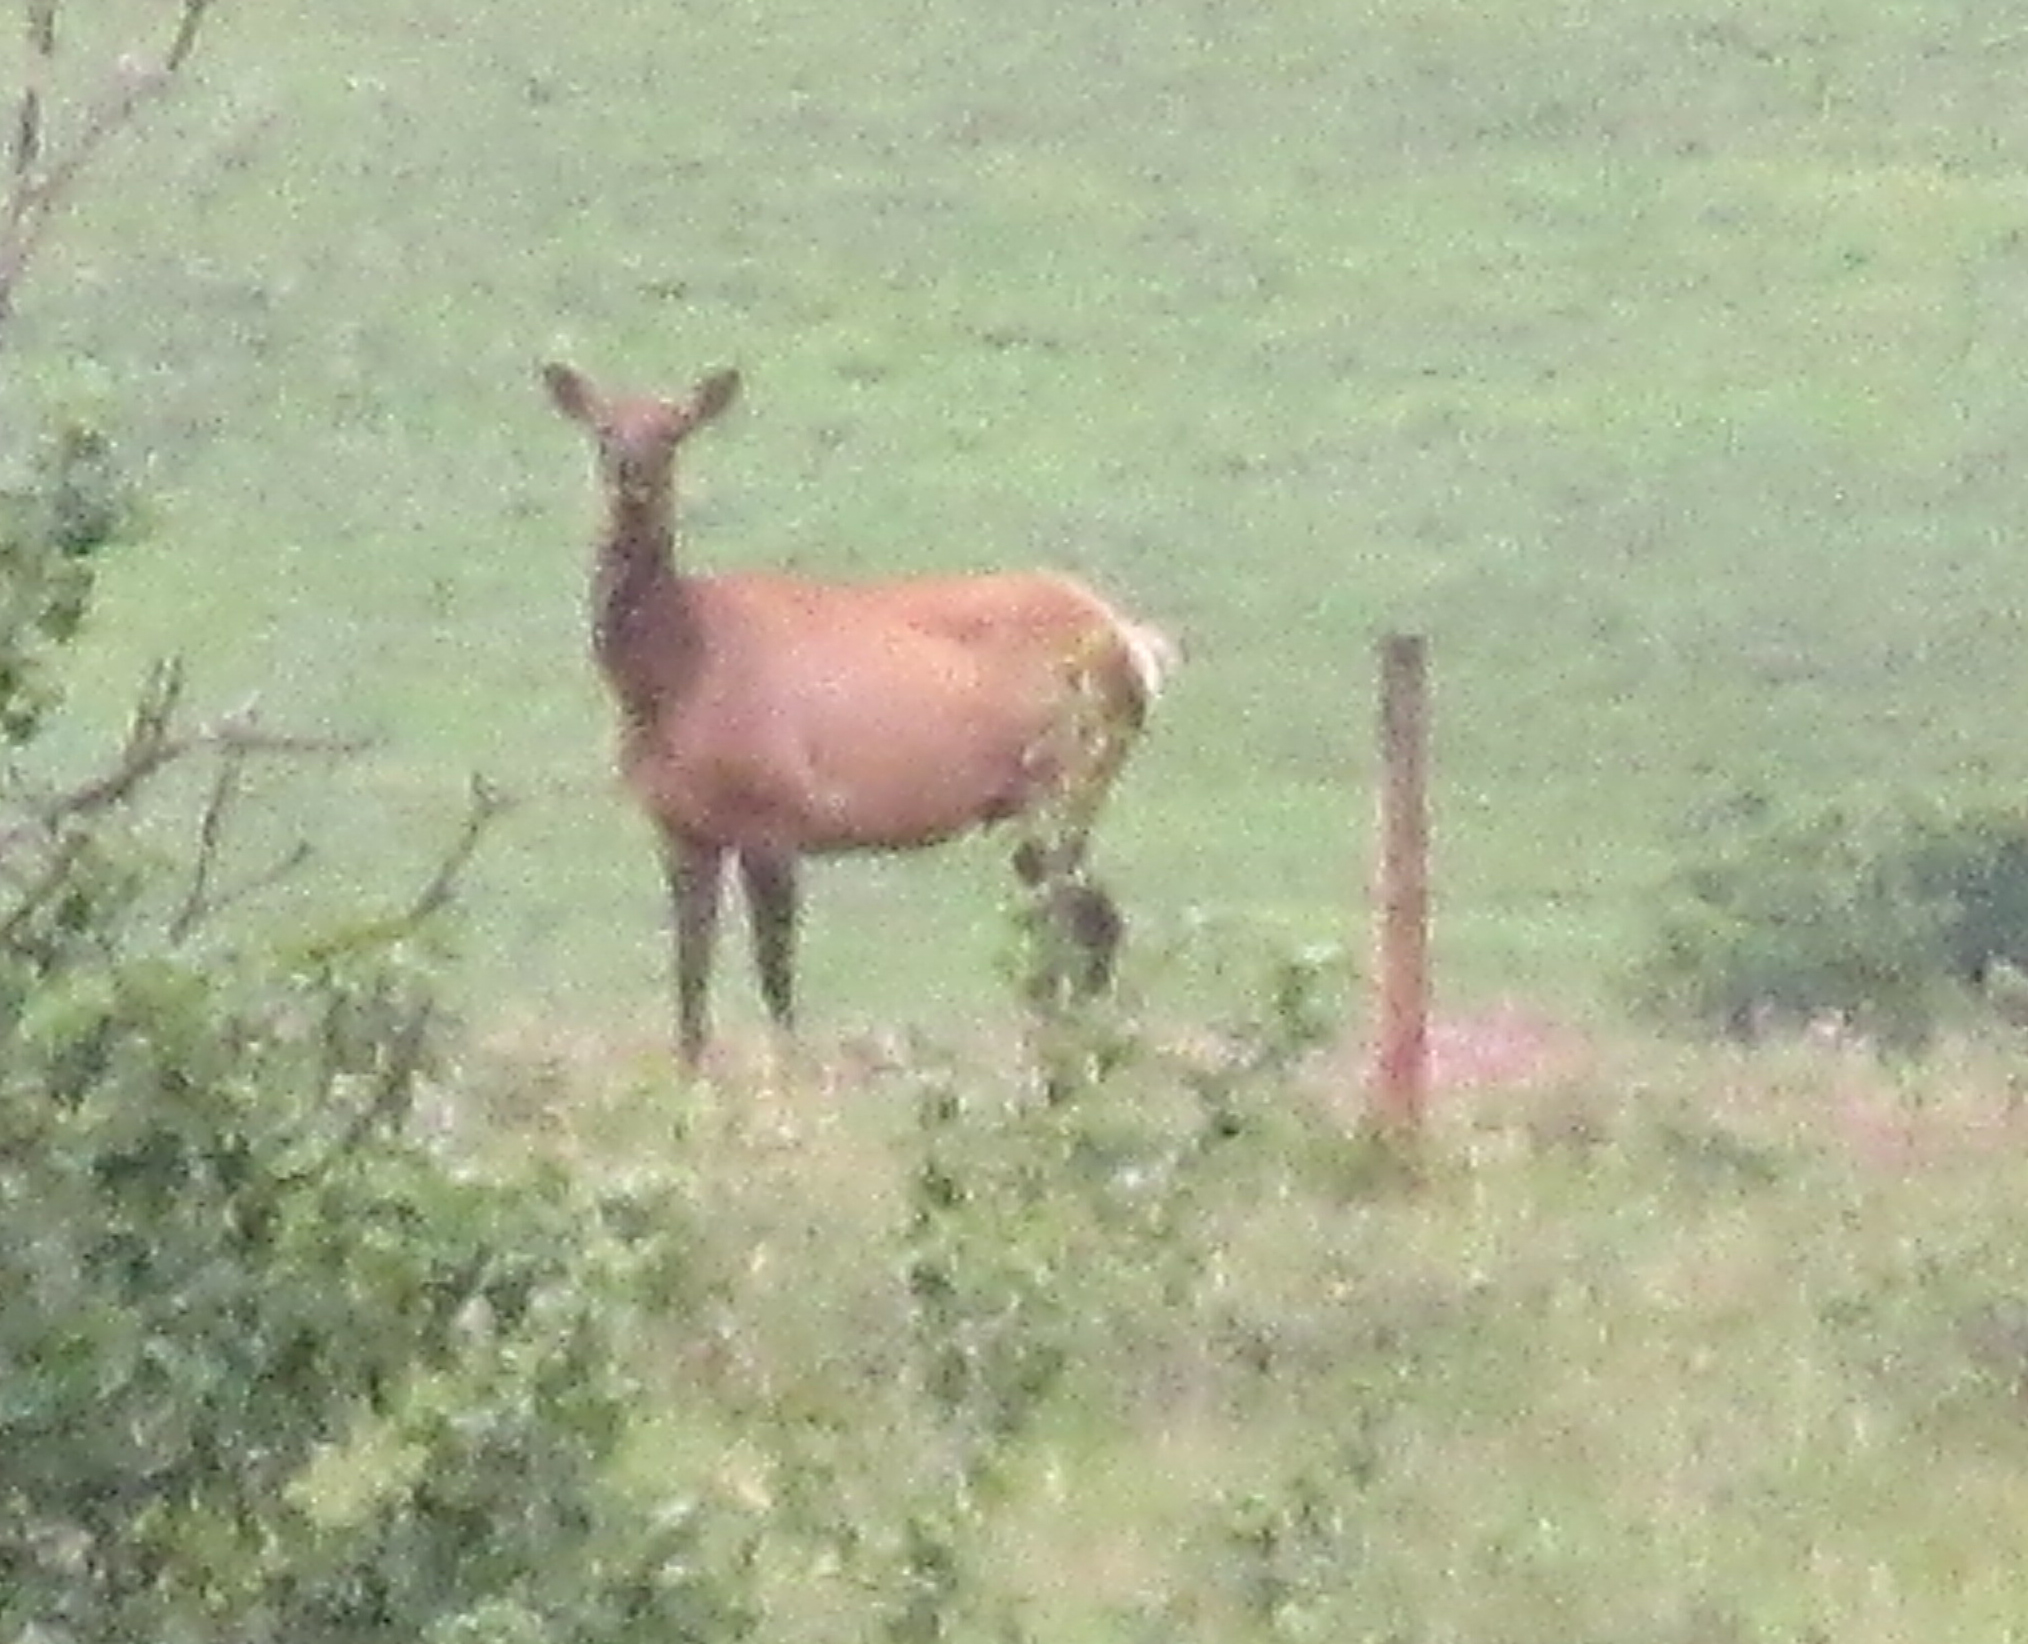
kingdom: Animalia
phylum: Chordata
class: Mammalia
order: Artiodactyla
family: Cervidae
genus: Cervus
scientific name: Cervus elaphus
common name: Red deer
